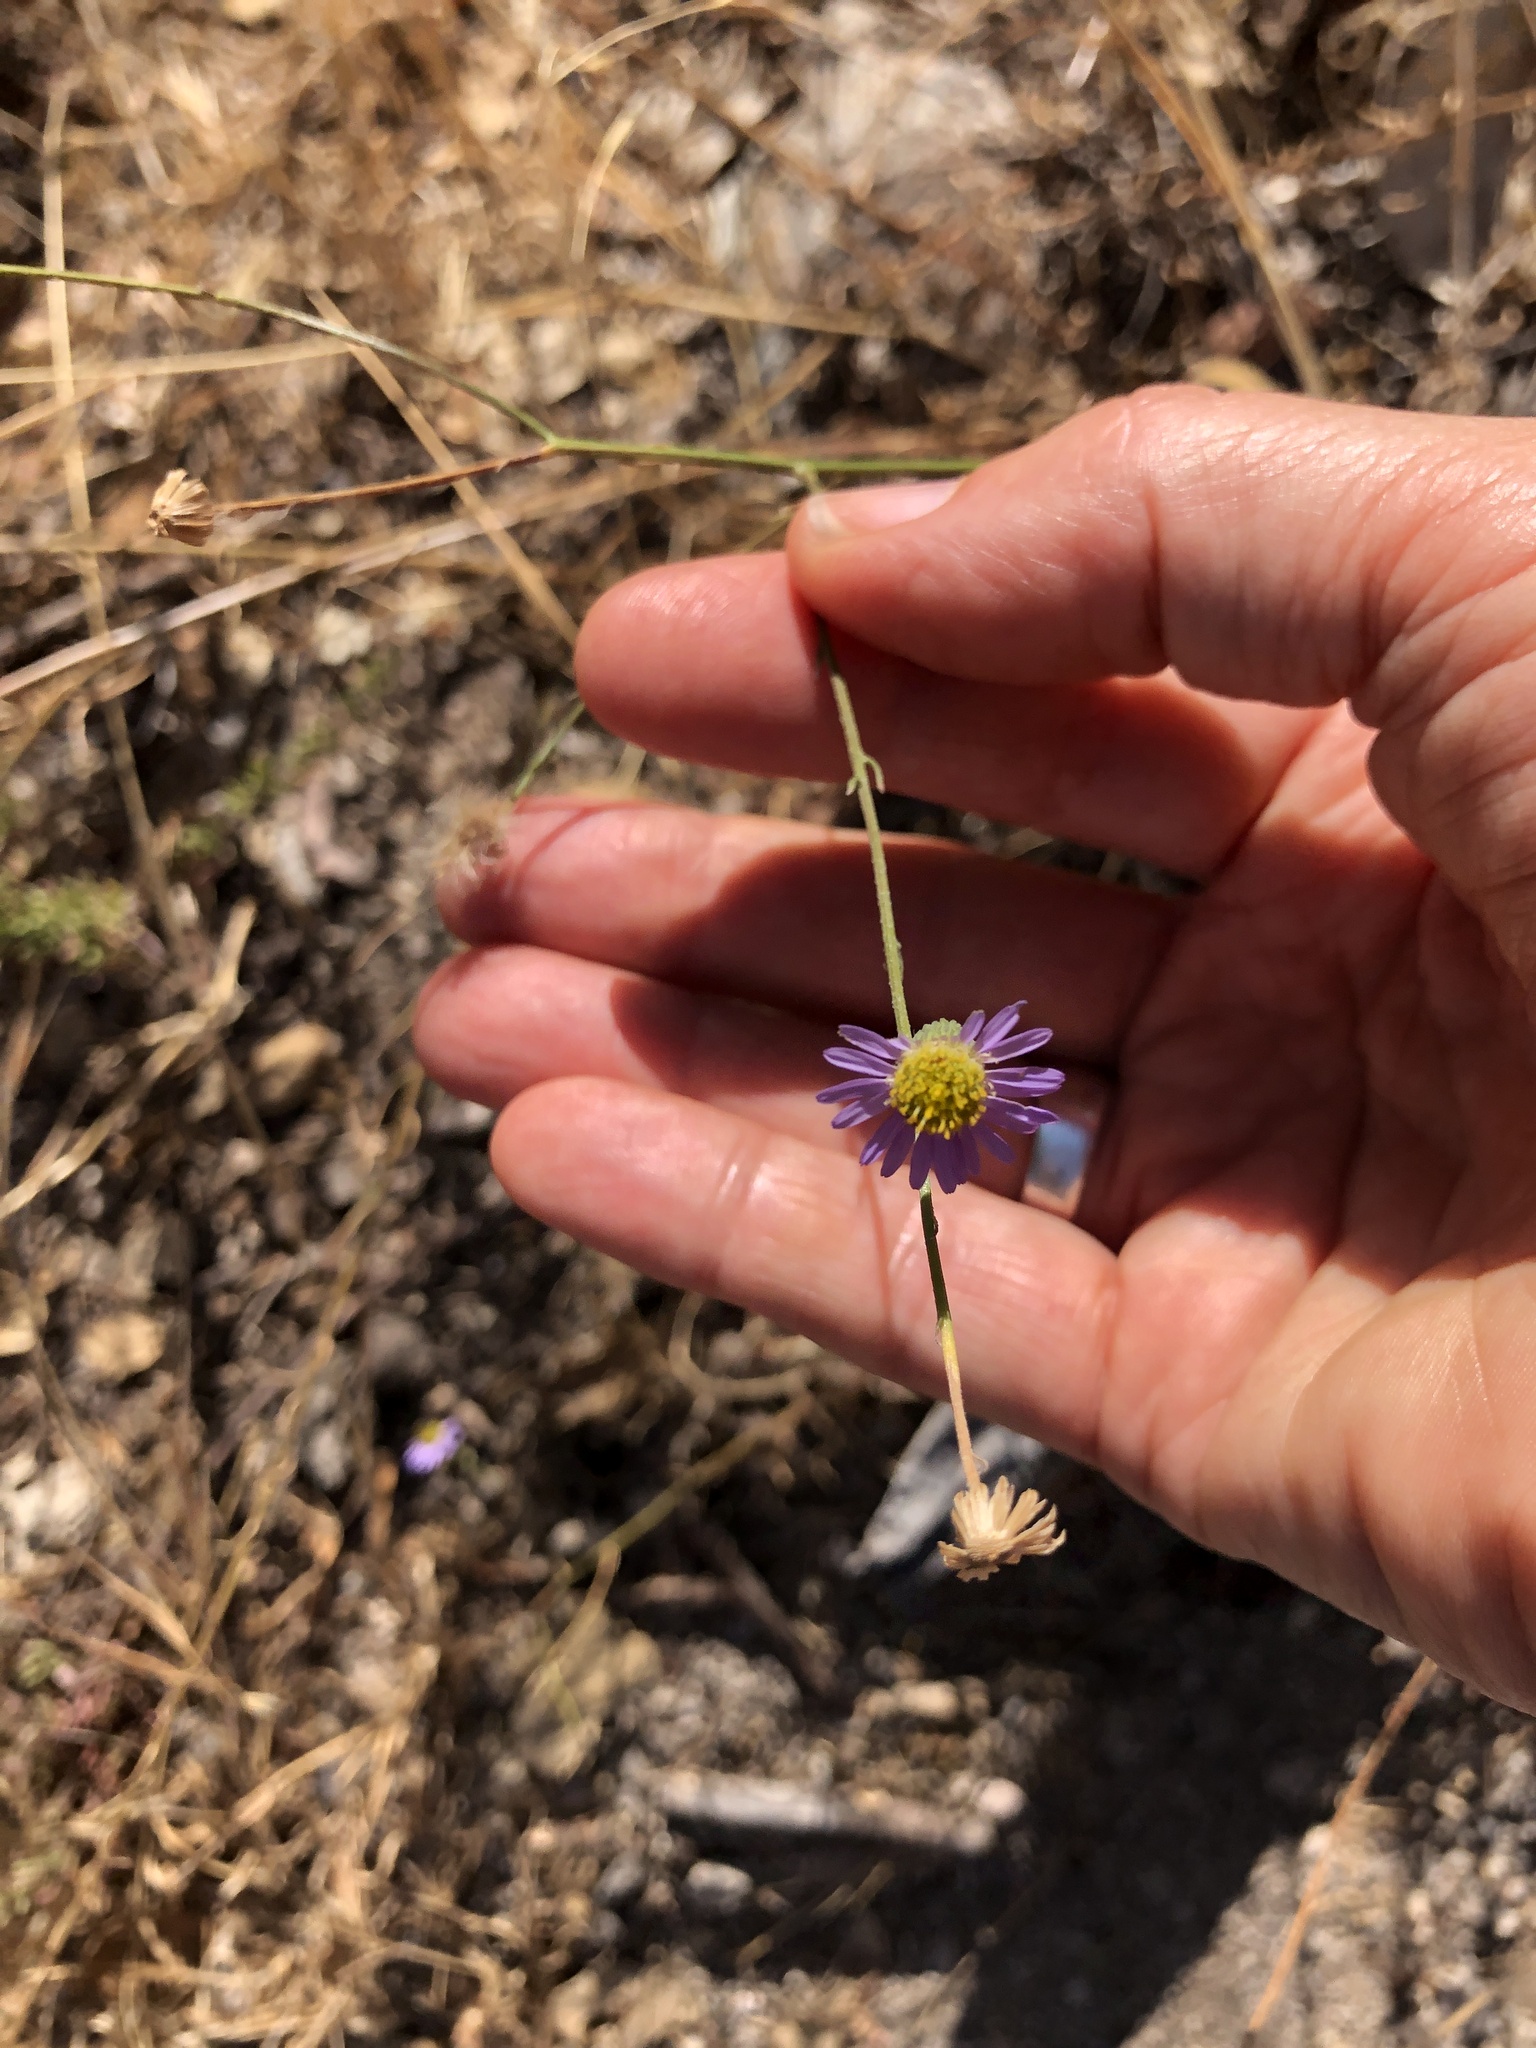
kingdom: Plantae
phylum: Tracheophyta
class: Magnoliopsida
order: Asterales
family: Asteraceae
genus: Erigeron
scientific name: Erigeron foliosus
